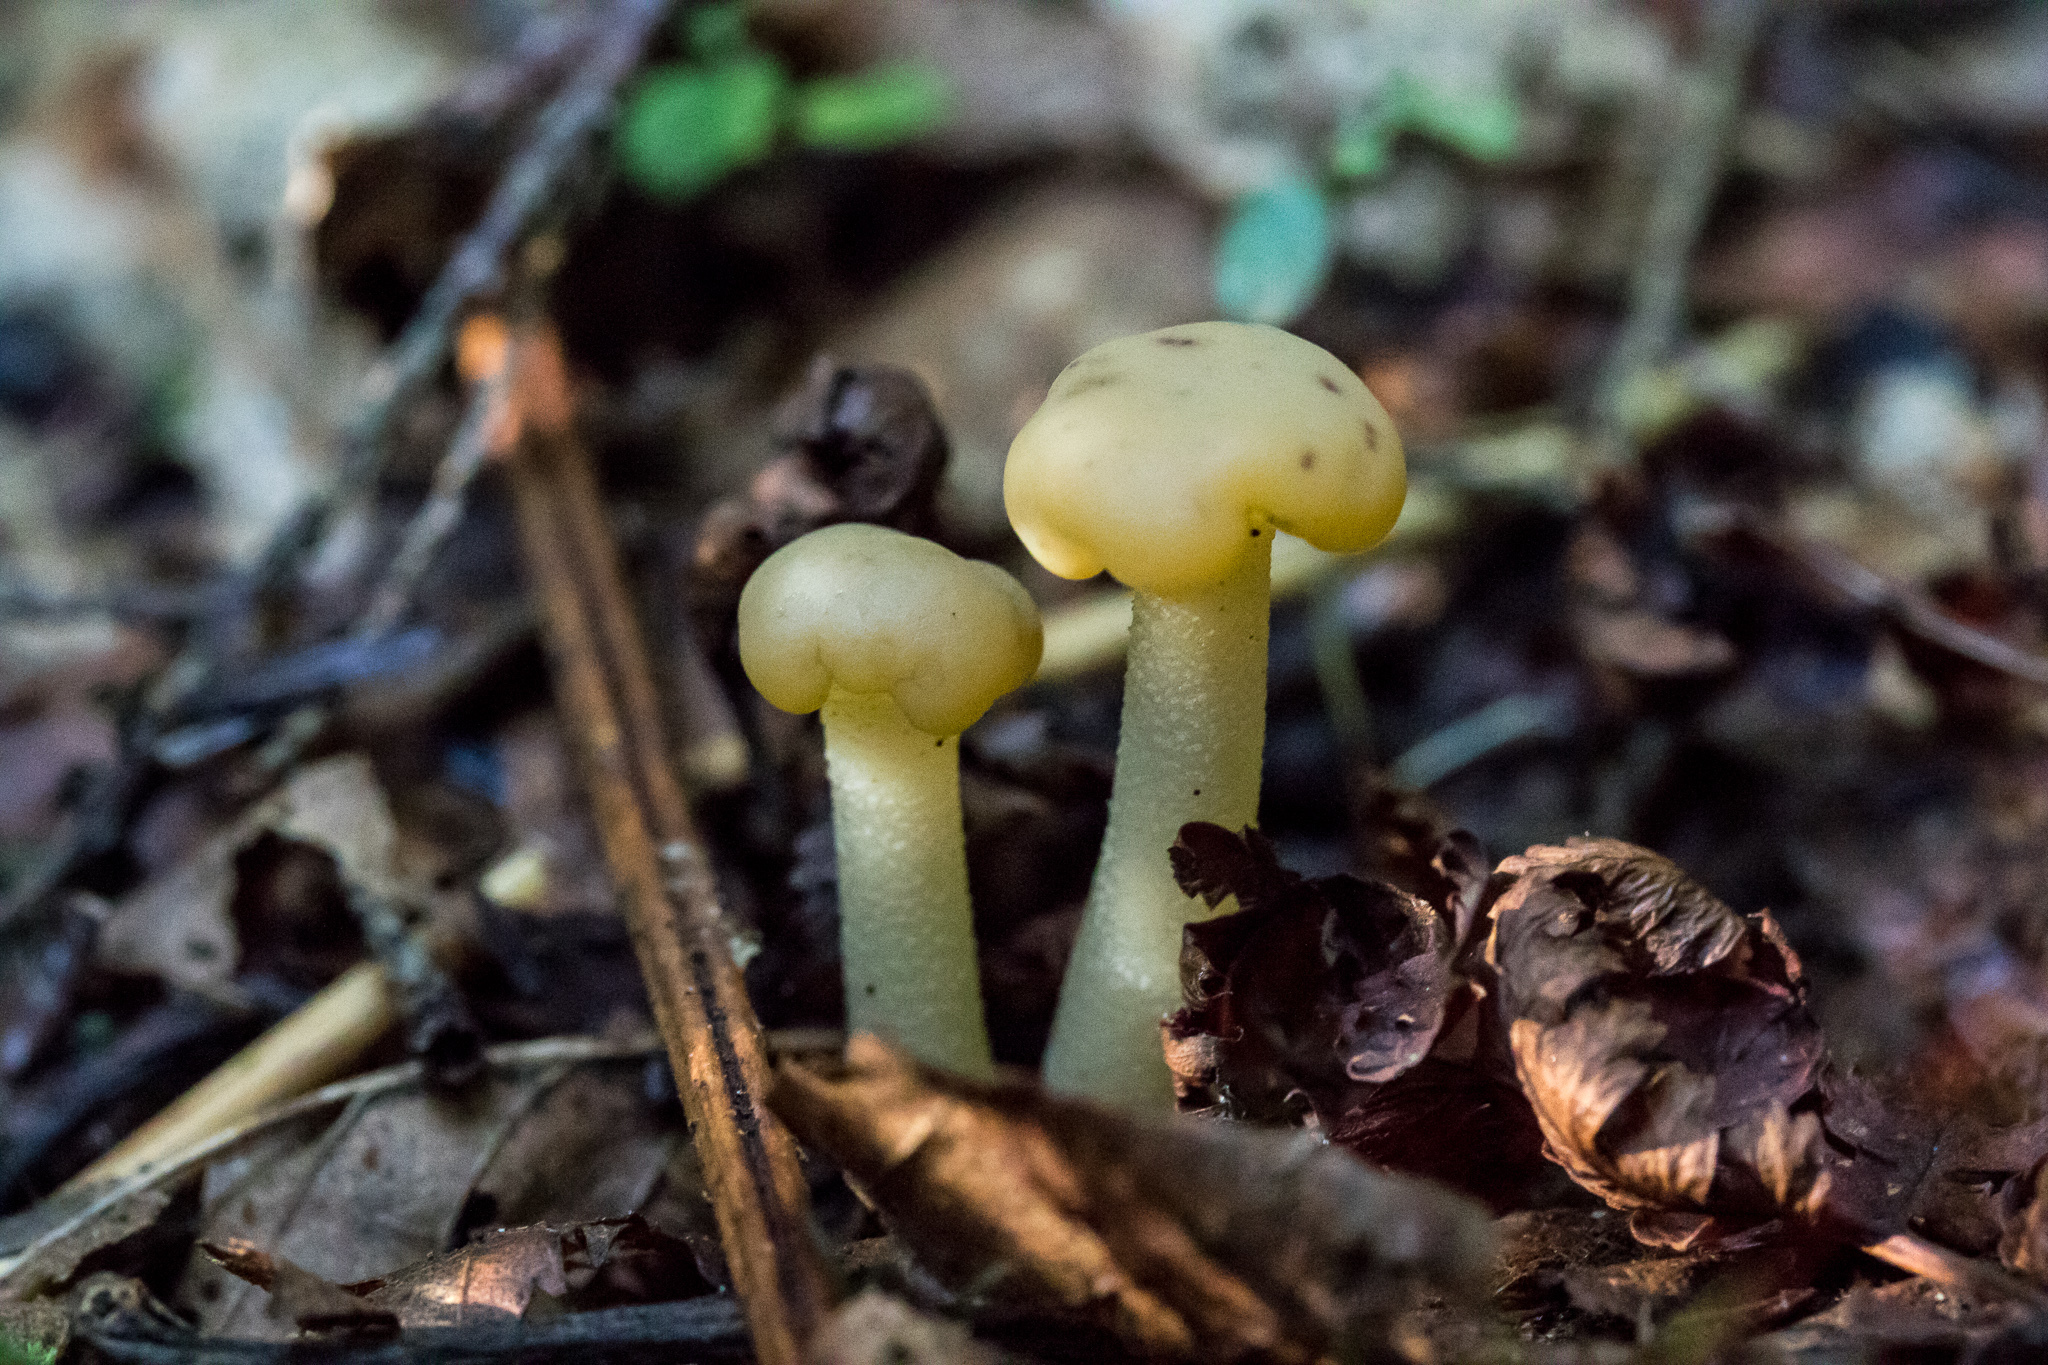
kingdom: Fungi
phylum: Ascomycota
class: Leotiomycetes
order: Leotiales
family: Leotiaceae
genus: Leotia
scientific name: Leotia lubrica
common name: Jellybaby
